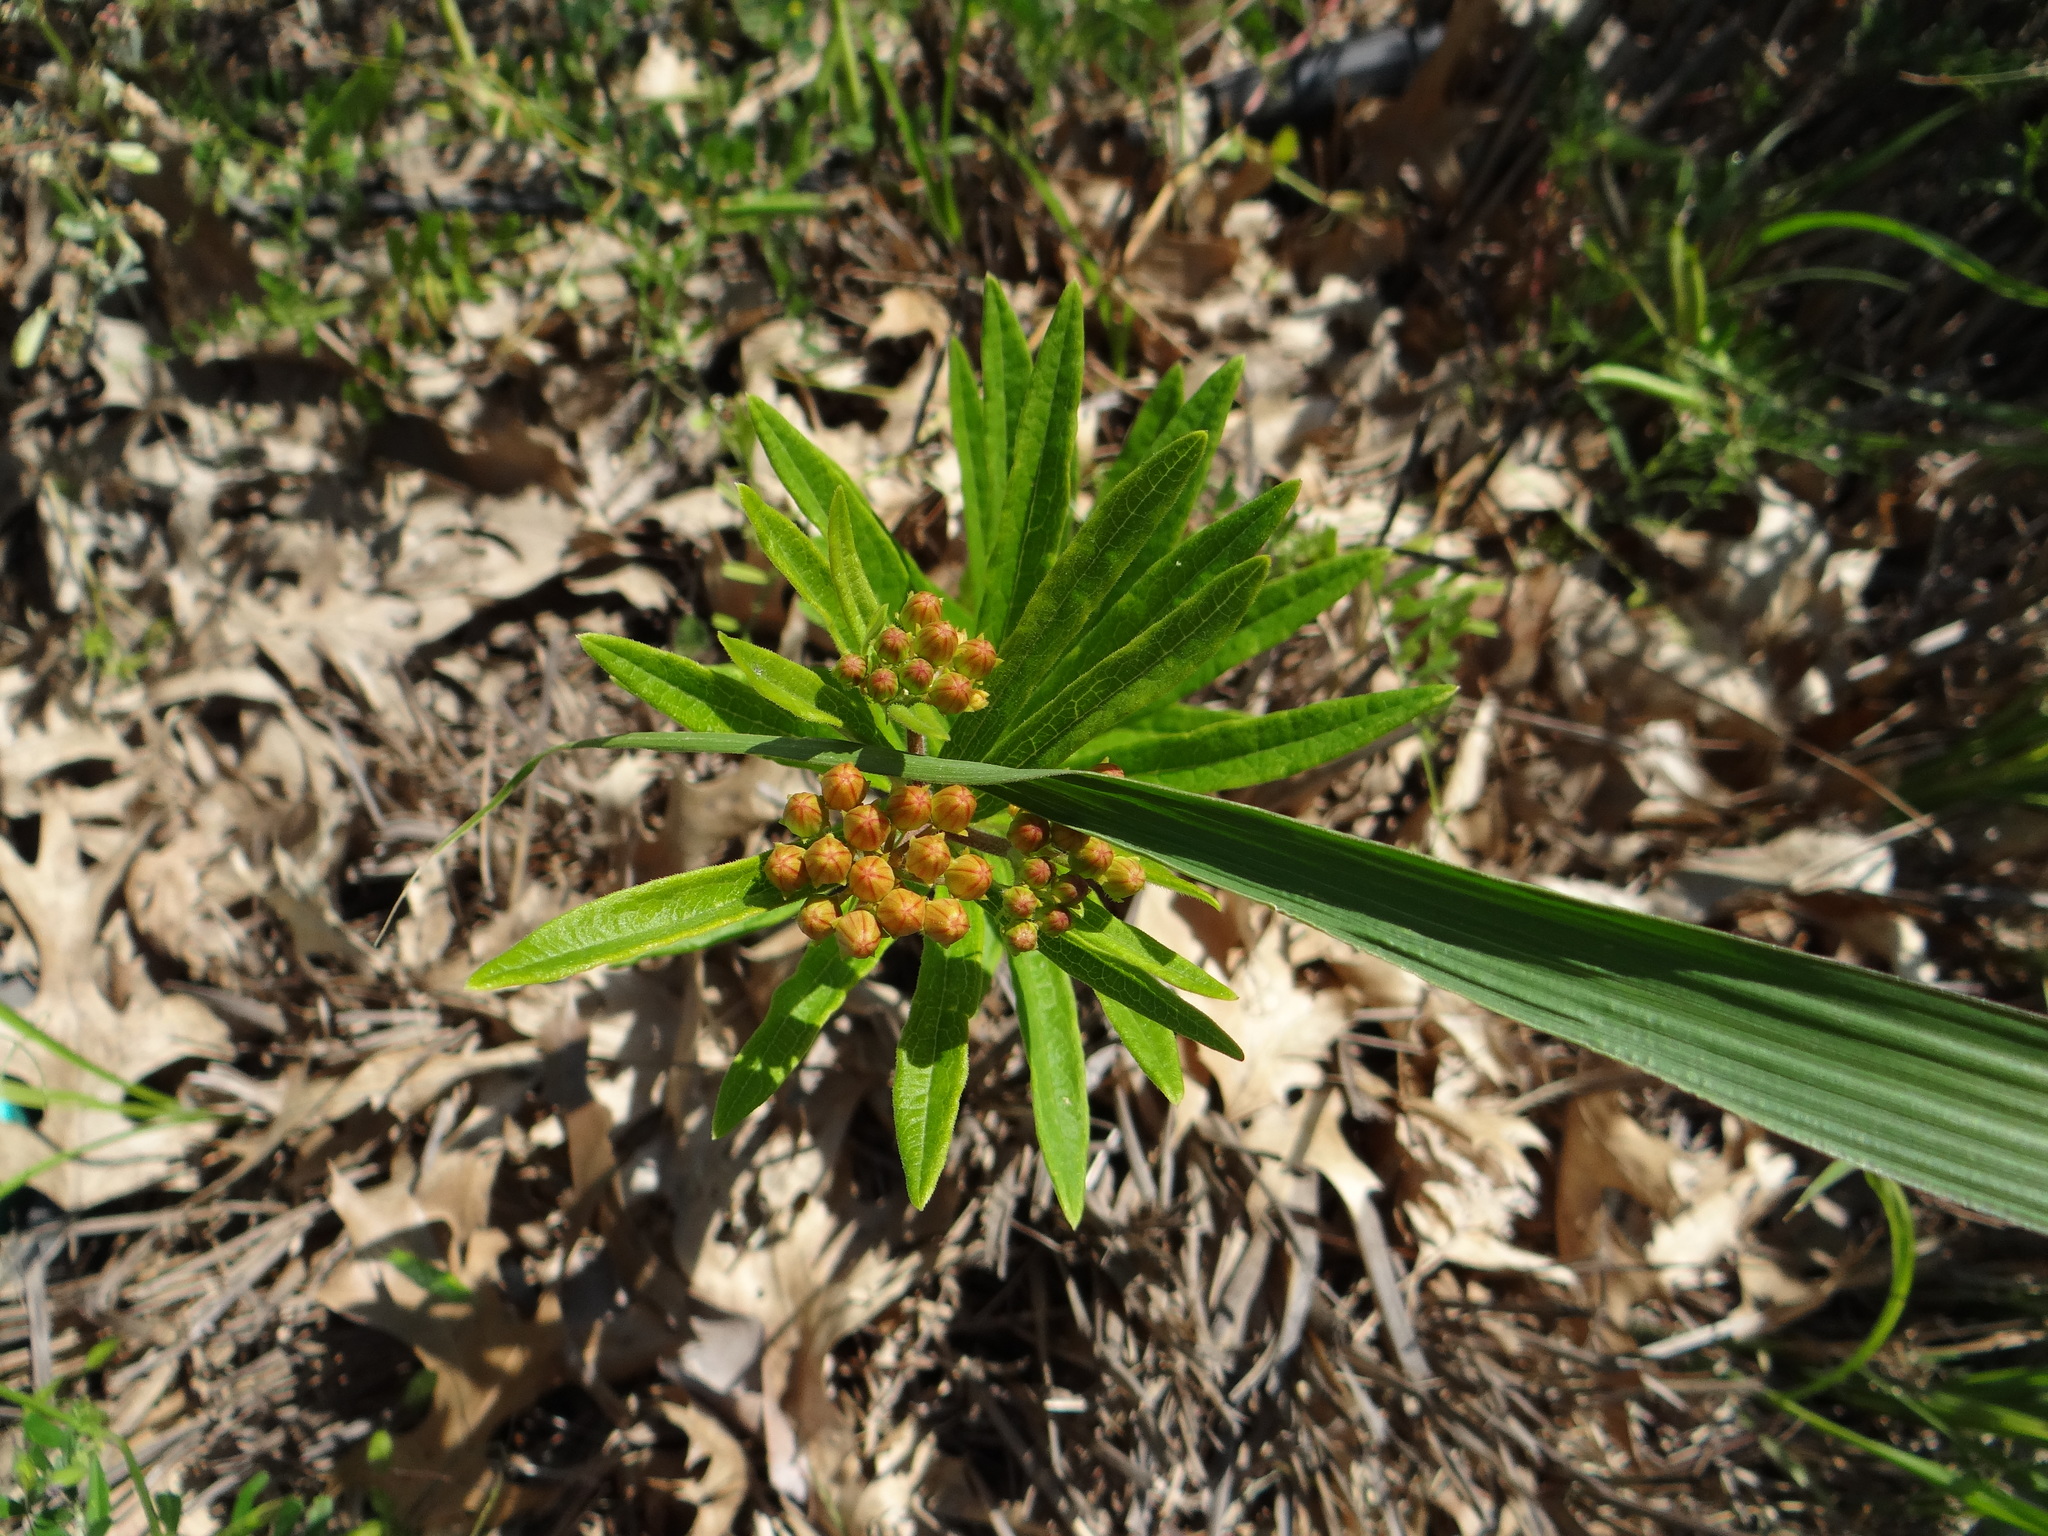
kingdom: Plantae
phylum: Tracheophyta
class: Magnoliopsida
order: Gentianales
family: Apocynaceae
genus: Asclepias
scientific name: Asclepias tuberosa
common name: Butterfly milkweed
